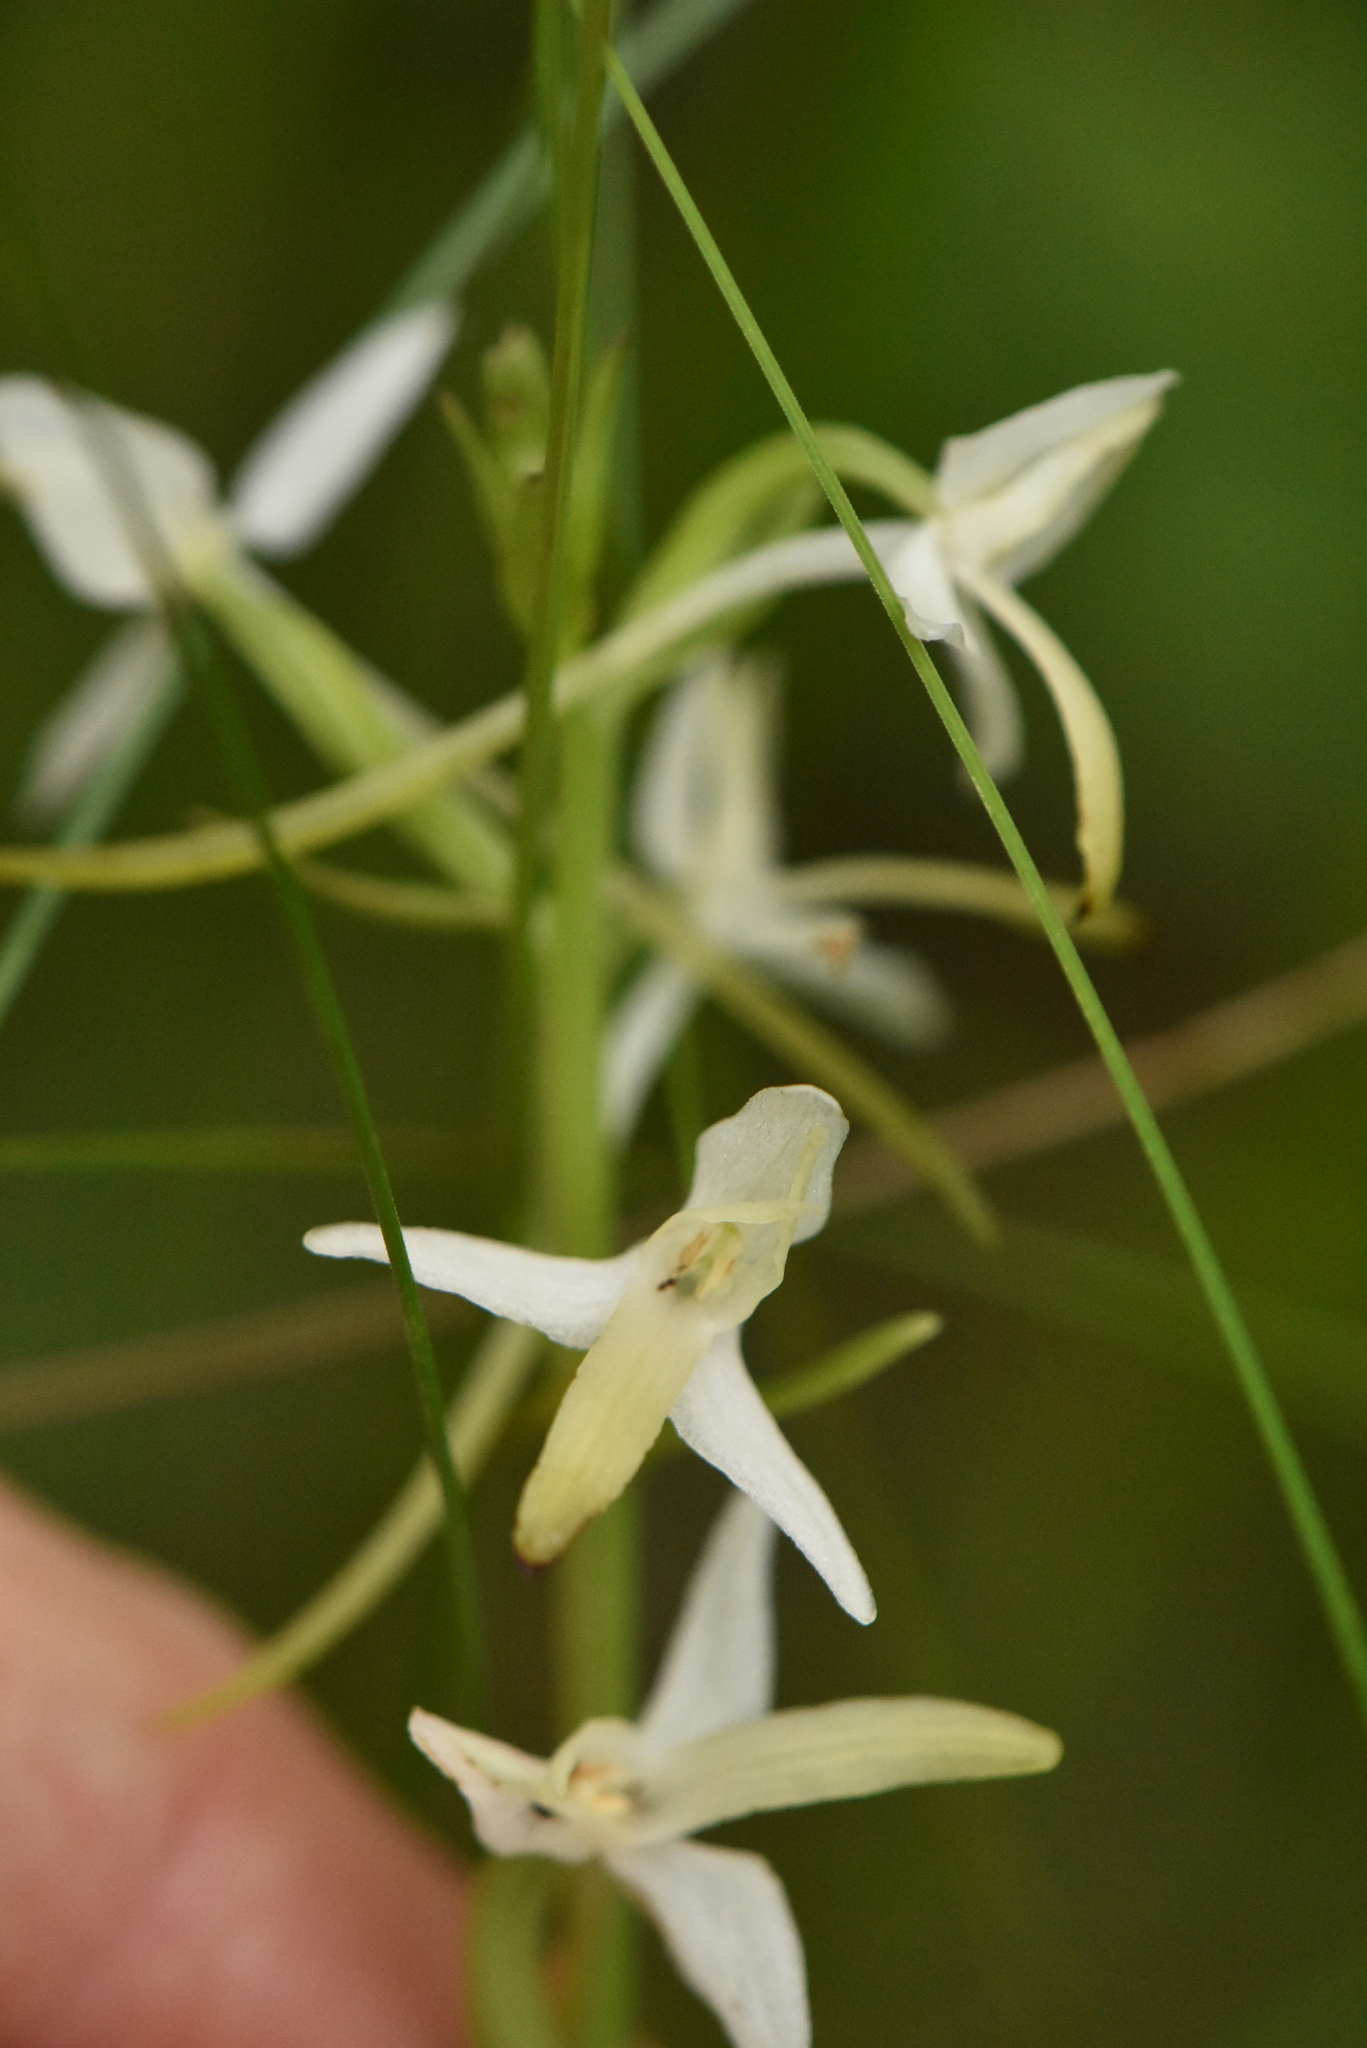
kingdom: Plantae
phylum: Tracheophyta
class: Liliopsida
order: Asparagales
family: Orchidaceae
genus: Platanthera
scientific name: Platanthera bifolia
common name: Lesser butterfly-orchid
